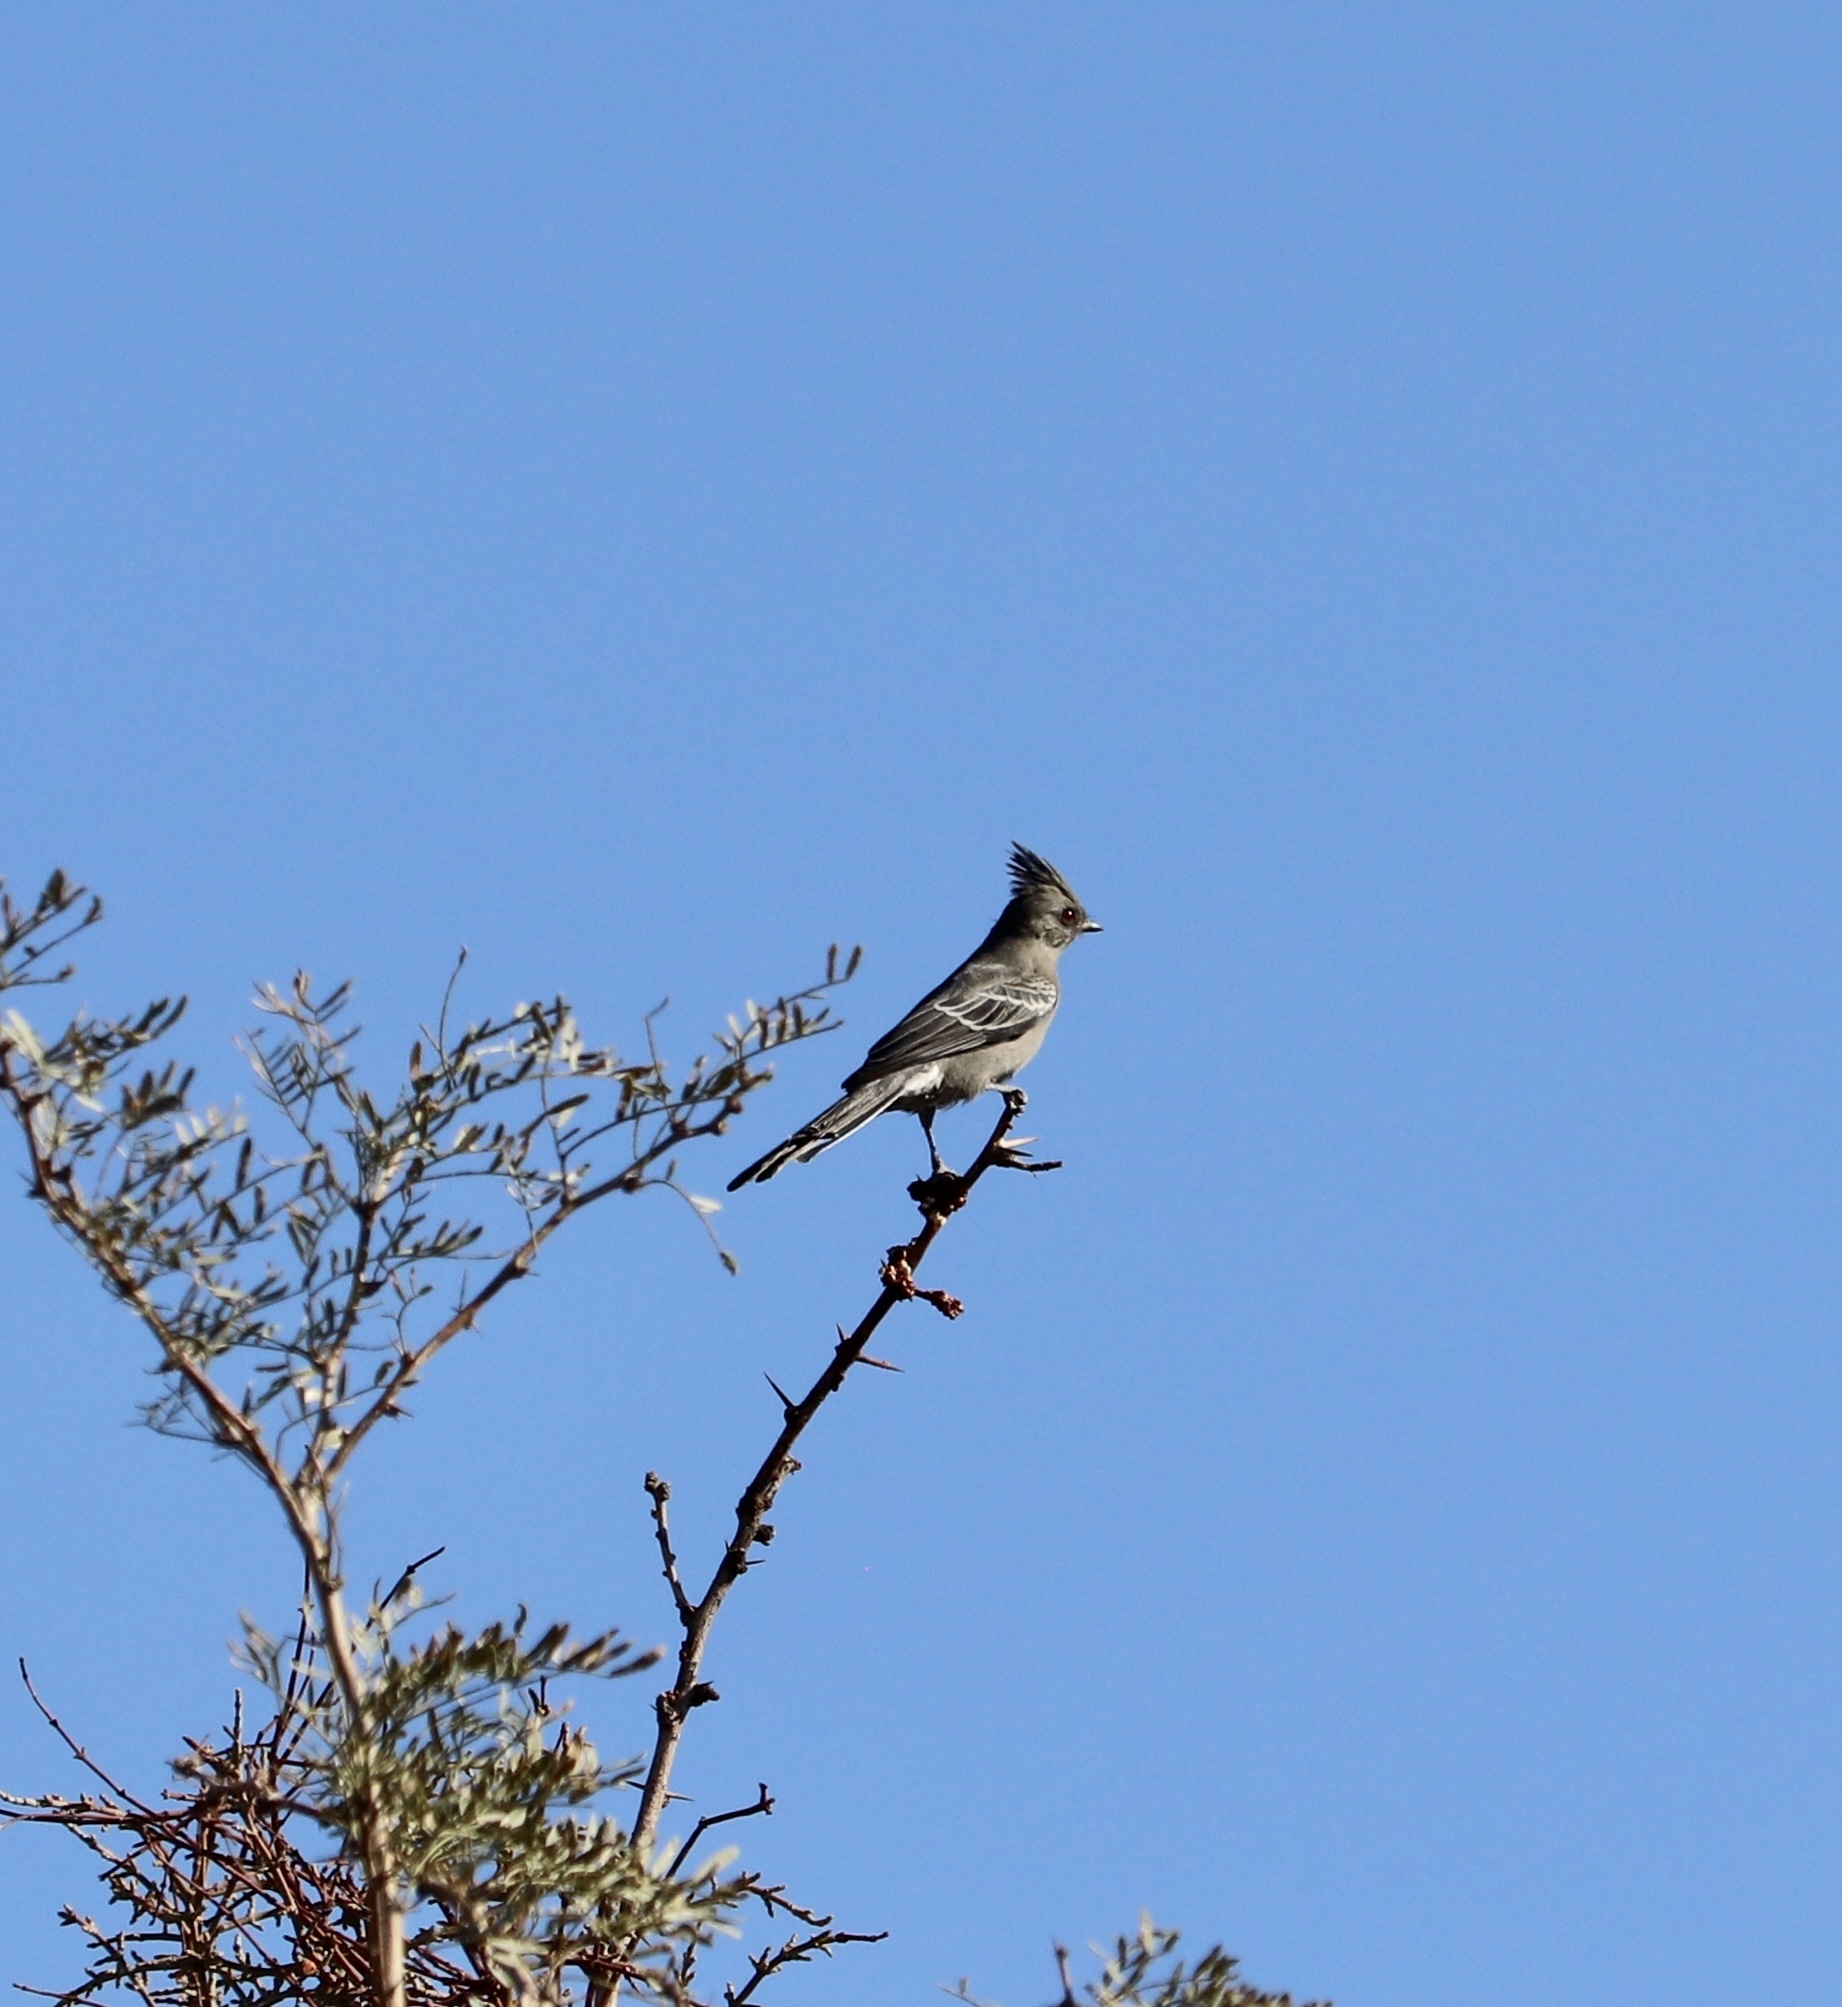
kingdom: Animalia
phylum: Chordata
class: Aves
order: Passeriformes
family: Ptilogonatidae
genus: Phainopepla
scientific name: Phainopepla nitens
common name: Phainopepla
